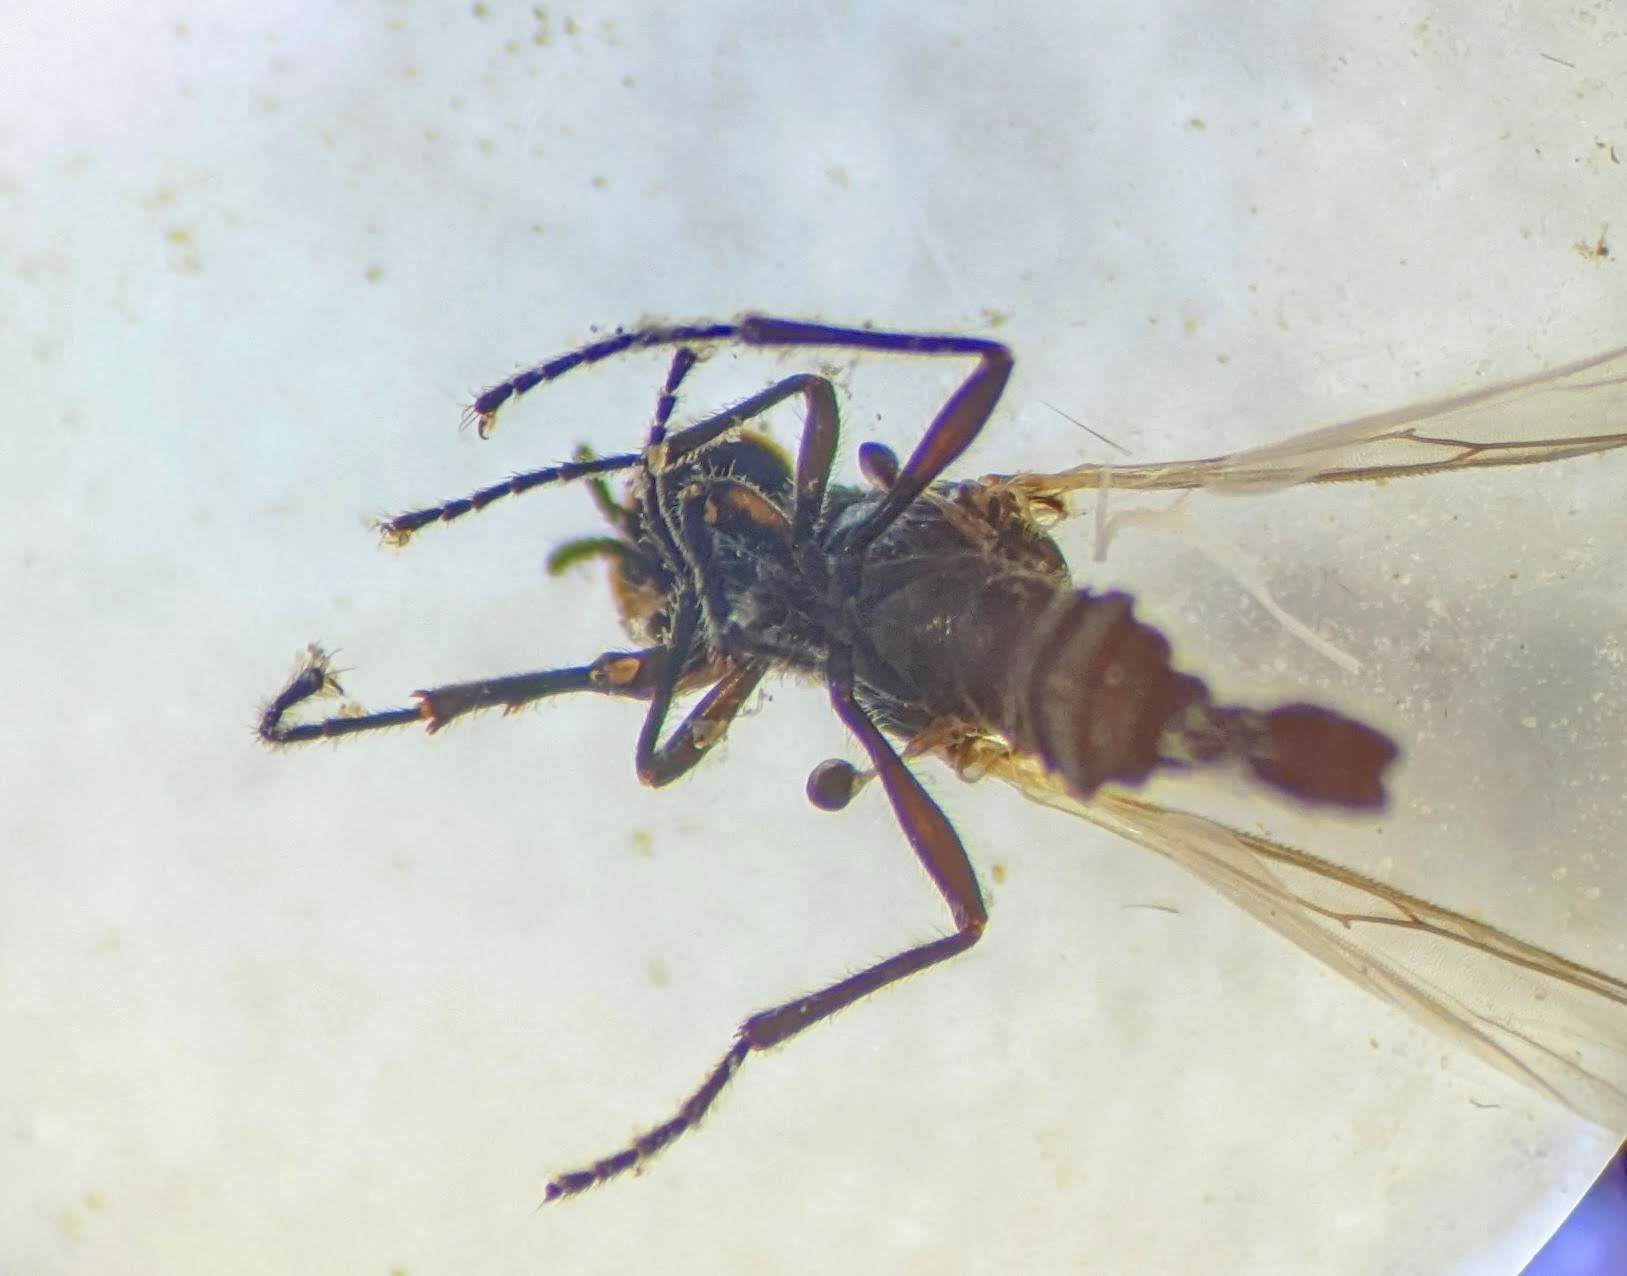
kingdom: Animalia
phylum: Arthropoda
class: Insecta
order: Diptera
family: Bibionidae
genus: Dilophus
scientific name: Dilophus
